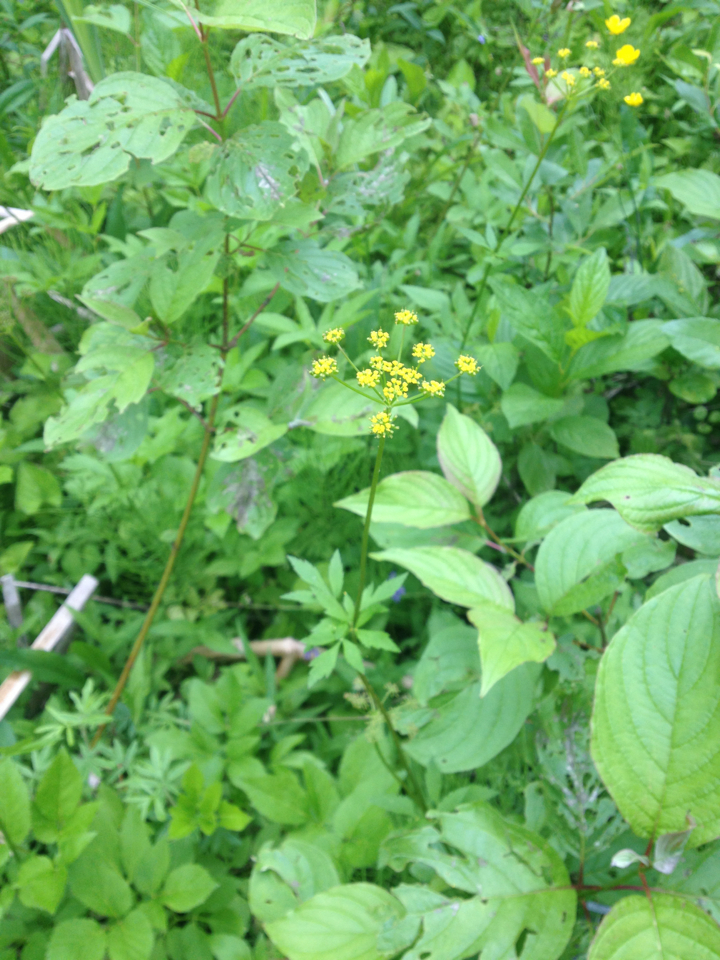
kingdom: Plantae
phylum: Tracheophyta
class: Magnoliopsida
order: Apiales
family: Apiaceae
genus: Zizia
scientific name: Zizia aurea
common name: Golden alexanders
